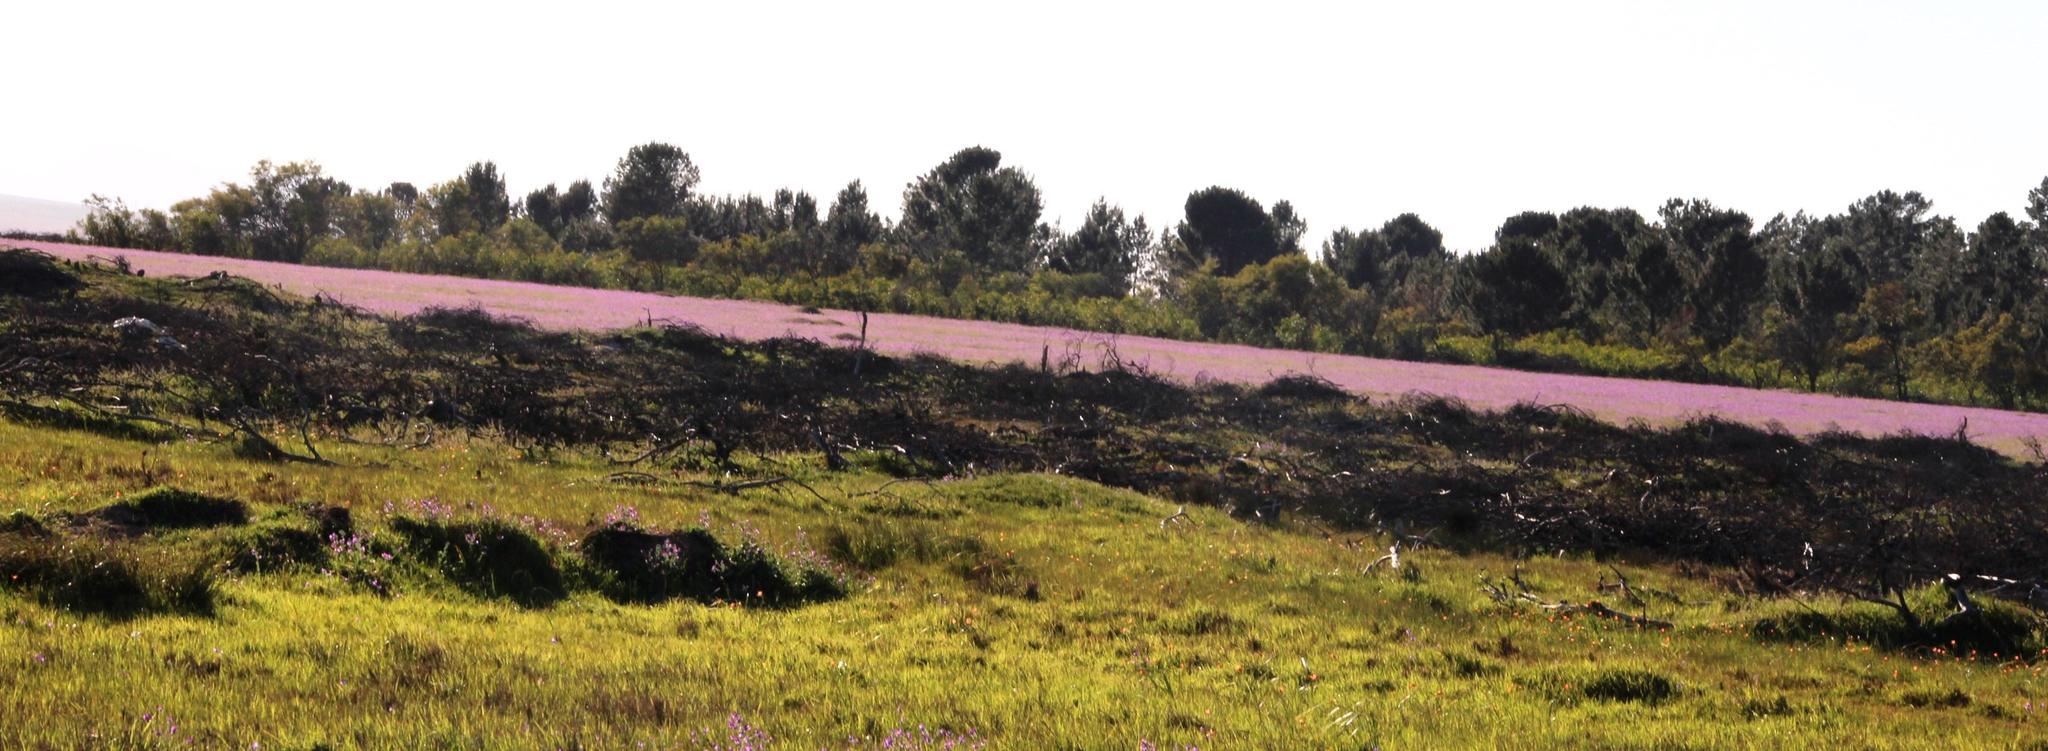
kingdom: Plantae
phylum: Tracheophyta
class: Magnoliopsida
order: Boraginales
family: Boraginaceae
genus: Echium
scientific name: Echium plantagineum
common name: Purple viper's-bugloss
